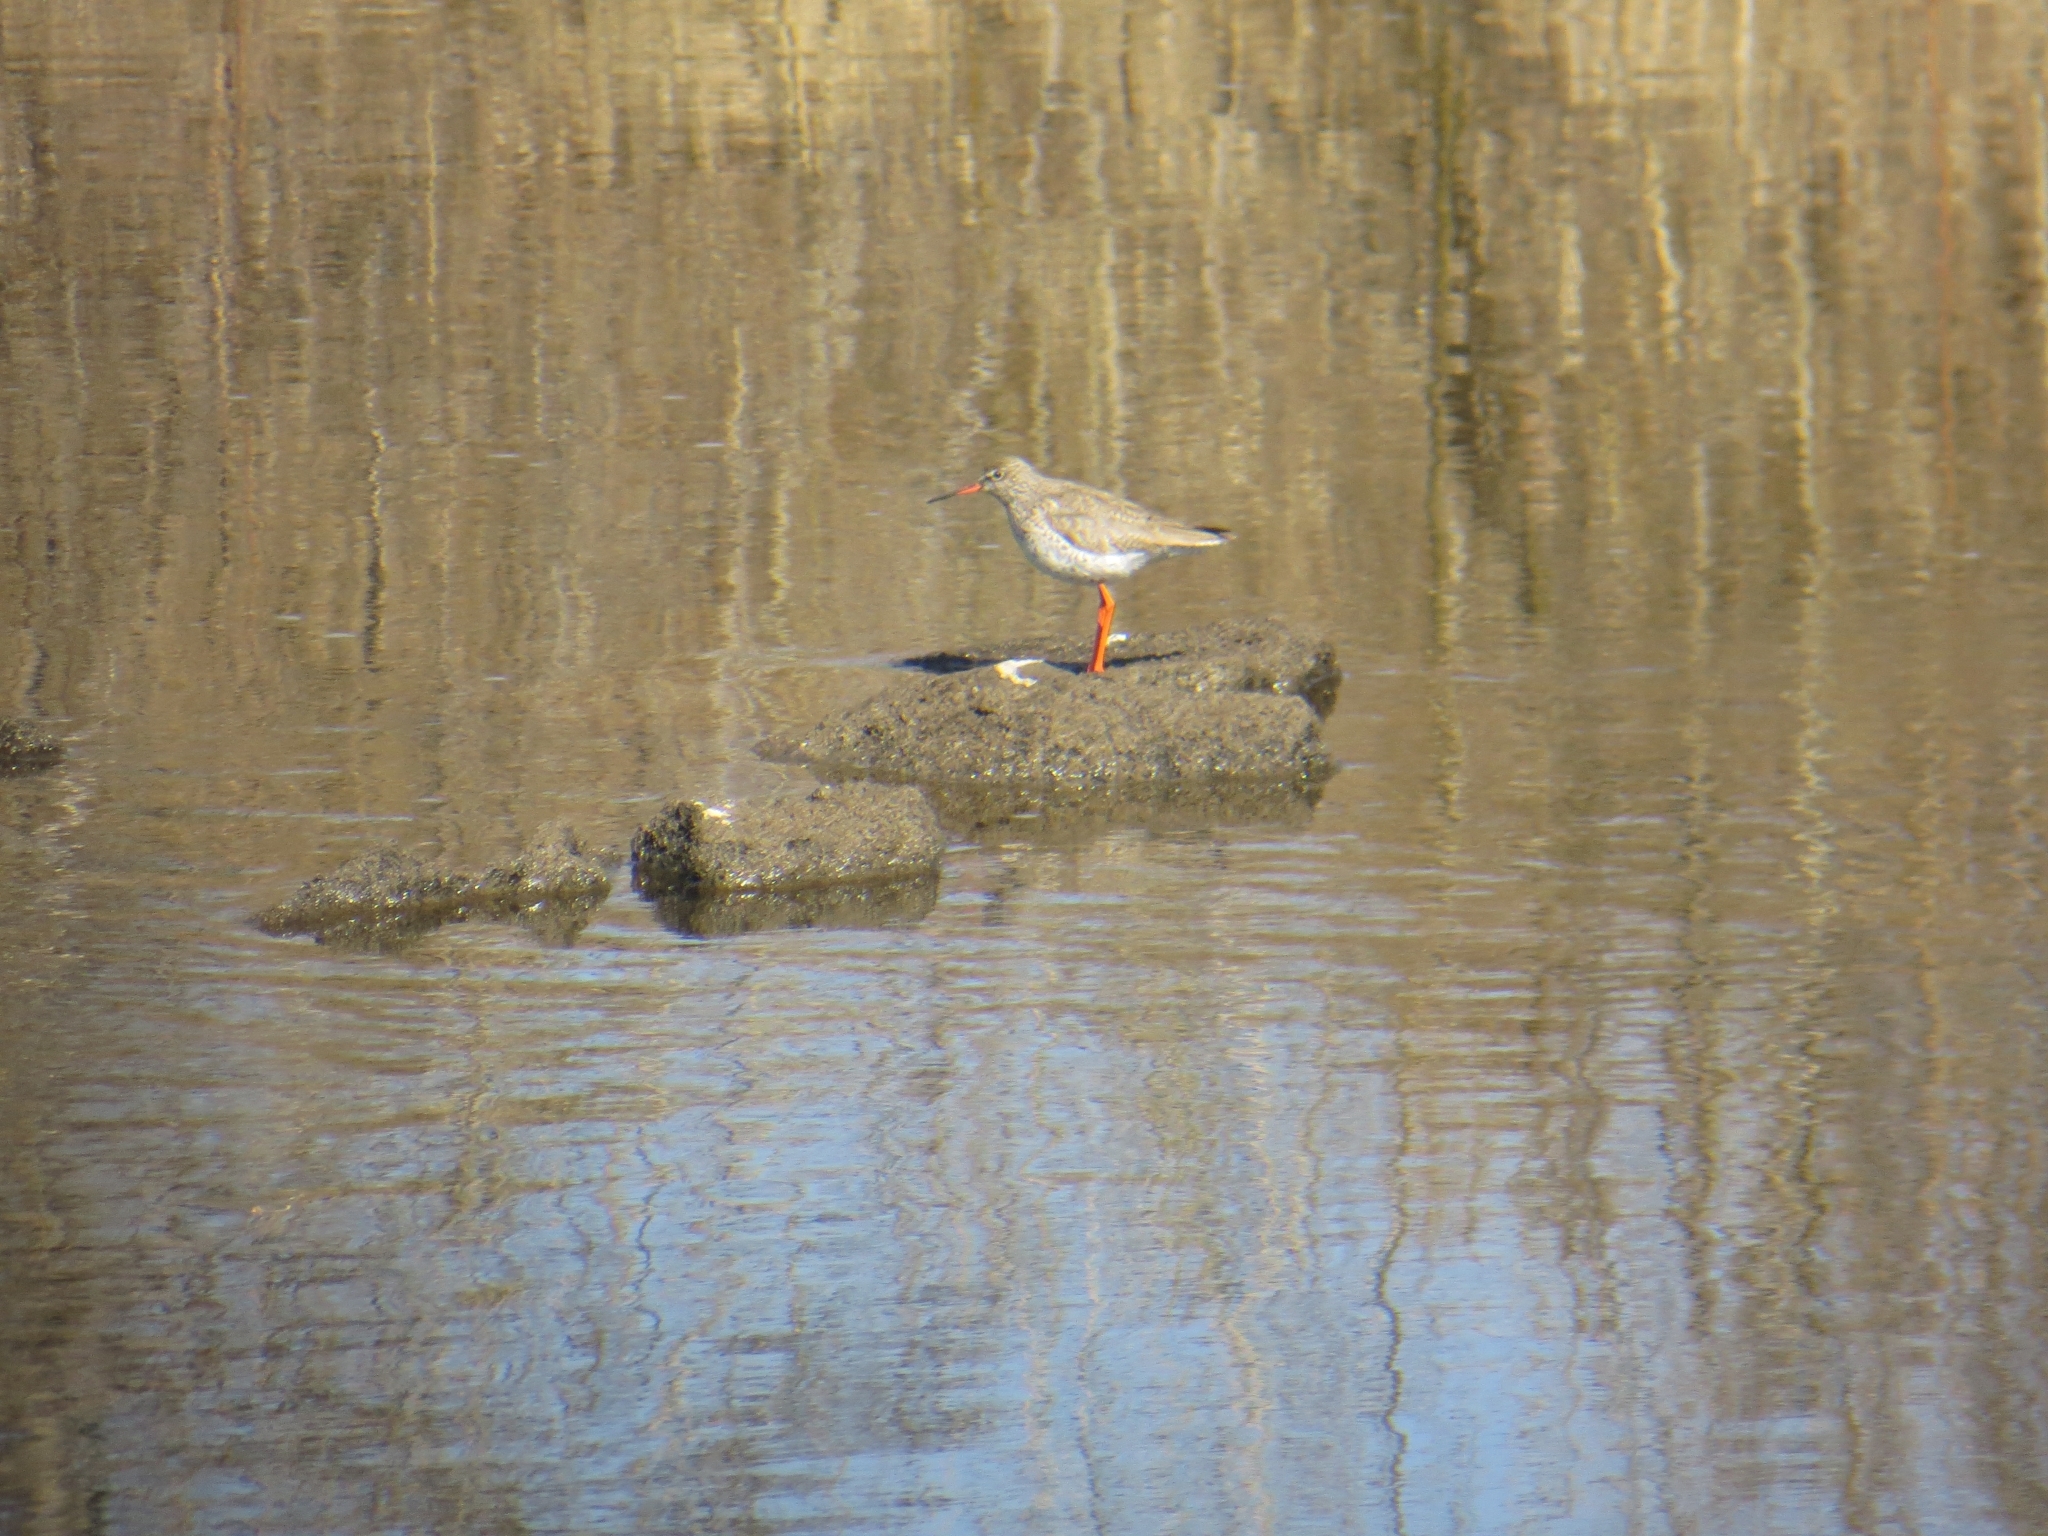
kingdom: Animalia
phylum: Chordata
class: Aves
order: Charadriiformes
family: Scolopacidae
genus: Tringa
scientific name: Tringa totanus
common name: Common redshank
